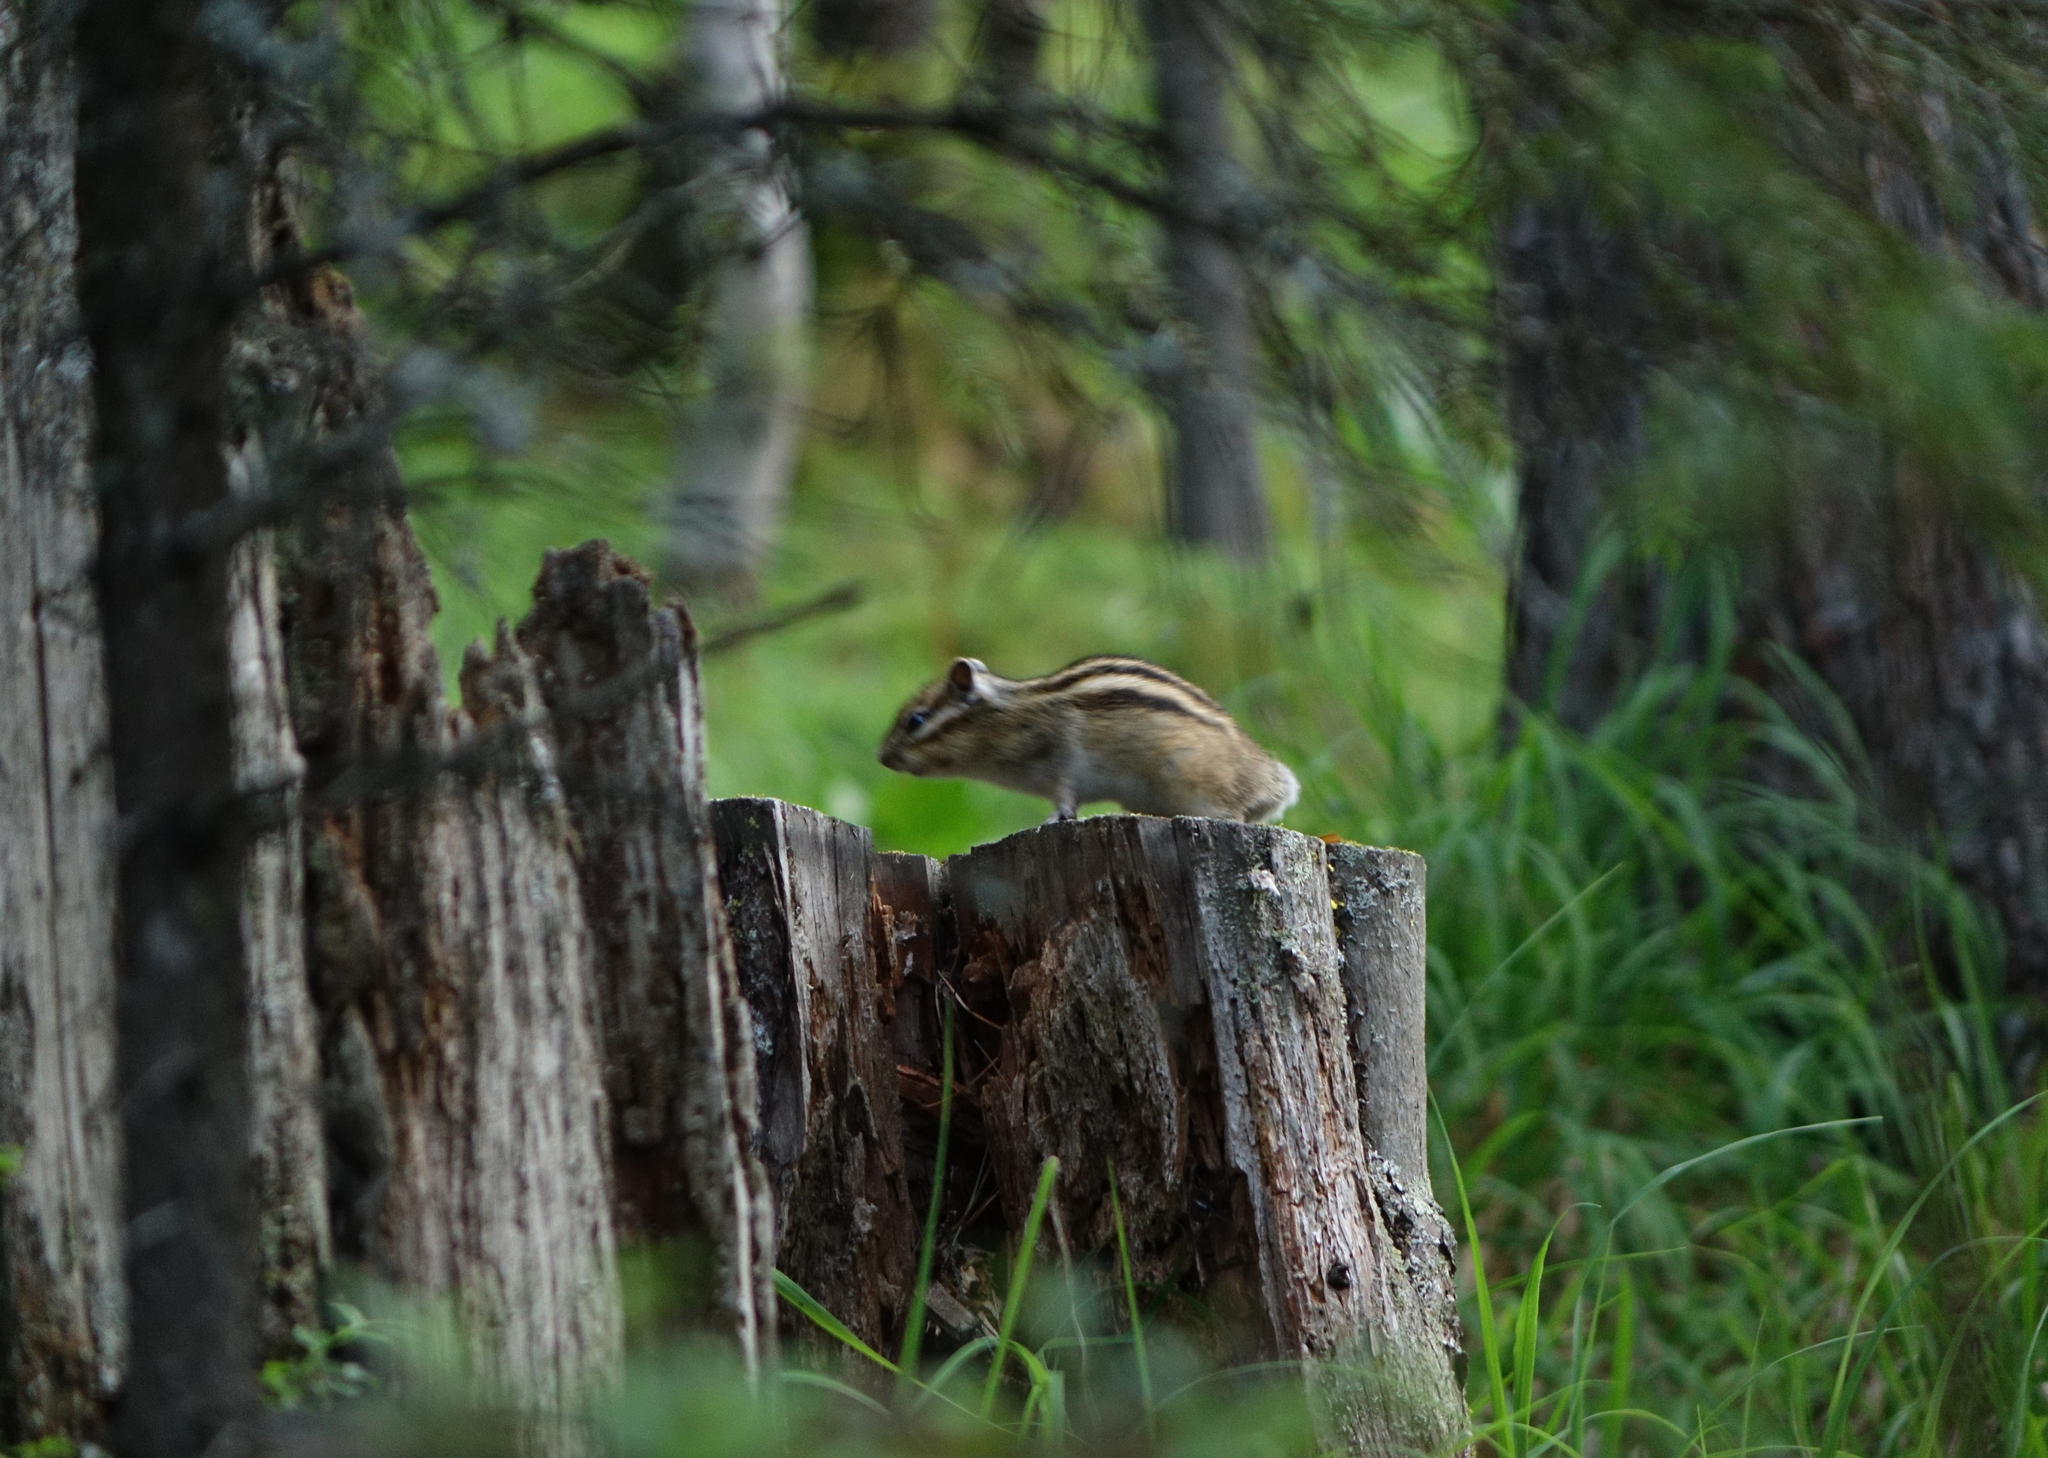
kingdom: Animalia
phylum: Chordata
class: Mammalia
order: Rodentia
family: Sciuridae
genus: Tamias
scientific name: Tamias sibiricus
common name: Siberian chipmunk
